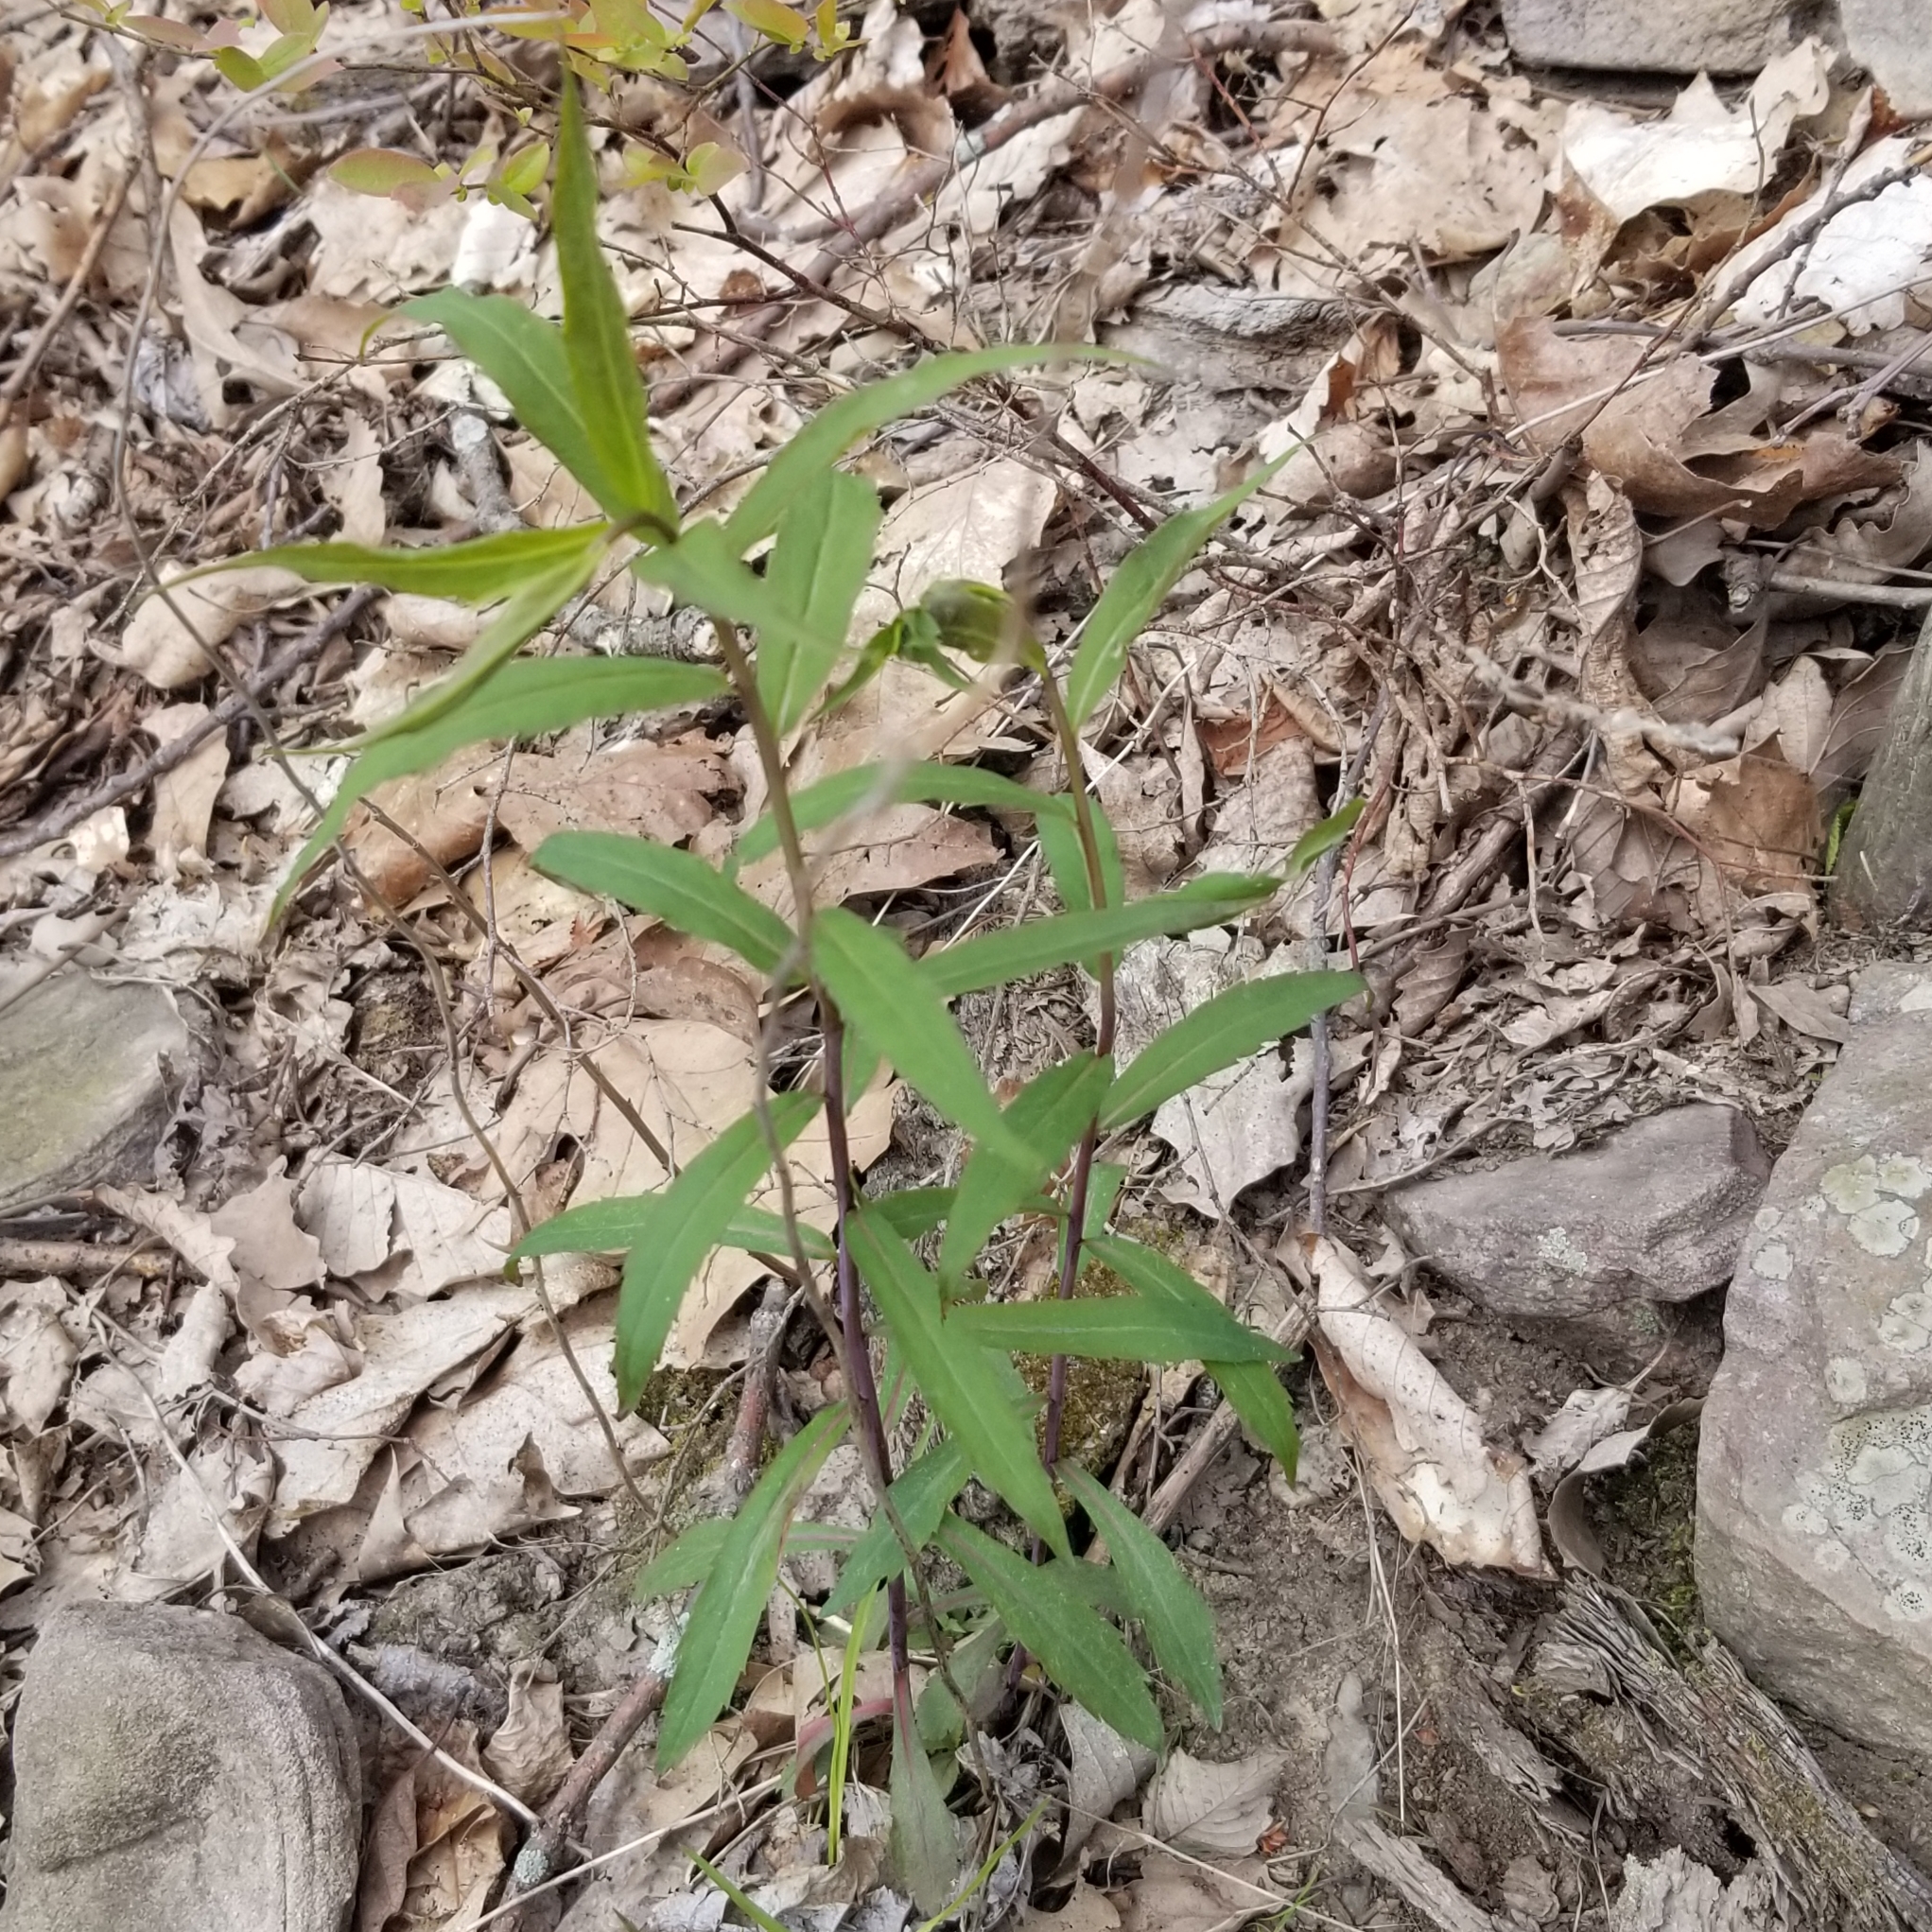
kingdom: Plantae
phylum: Tracheophyta
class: Magnoliopsida
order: Asterales
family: Asteraceae
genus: Solidago
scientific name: Solidago caesia
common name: Woodland goldenrod
